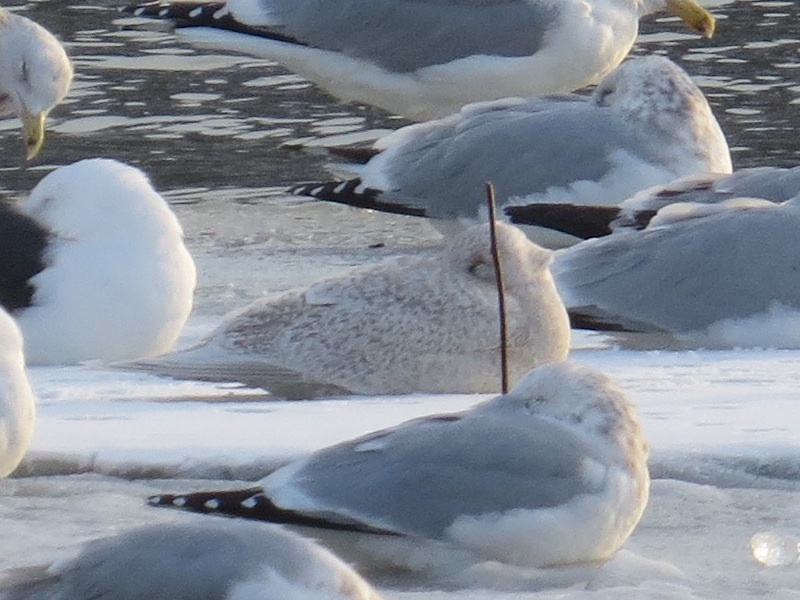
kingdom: Animalia
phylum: Chordata
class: Aves
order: Charadriiformes
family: Laridae
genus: Larus
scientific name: Larus glaucoides
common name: Iceland gull
